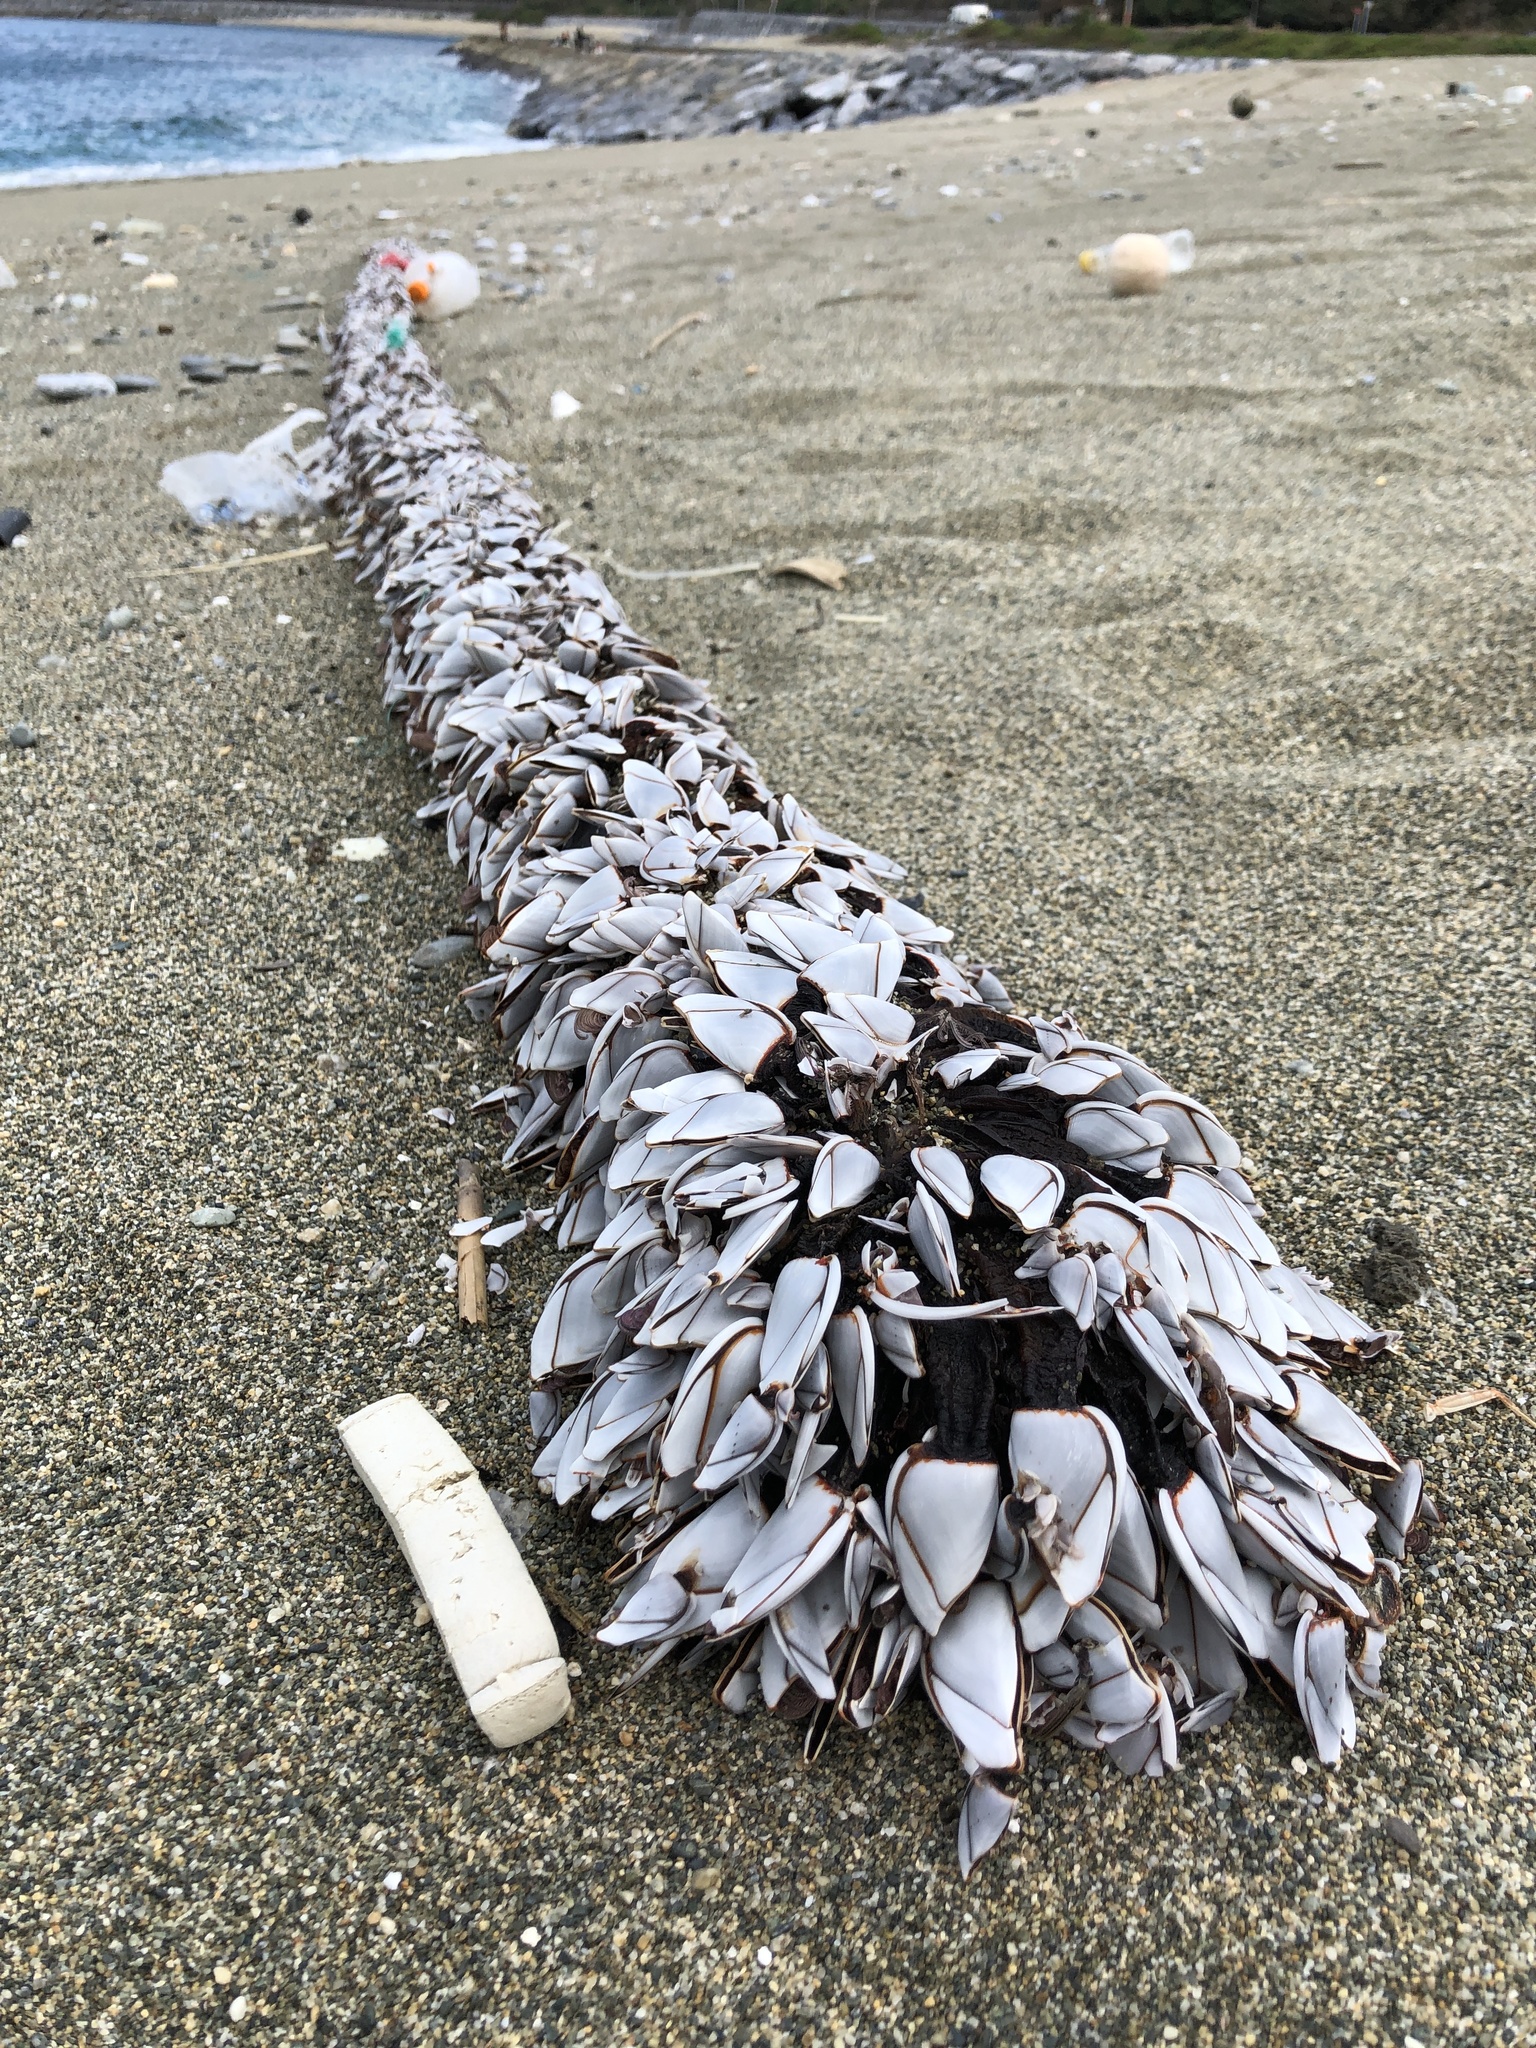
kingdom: Animalia
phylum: Arthropoda
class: Maxillopoda
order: Pedunculata
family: Lepadidae
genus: Lepas
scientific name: Lepas indica
